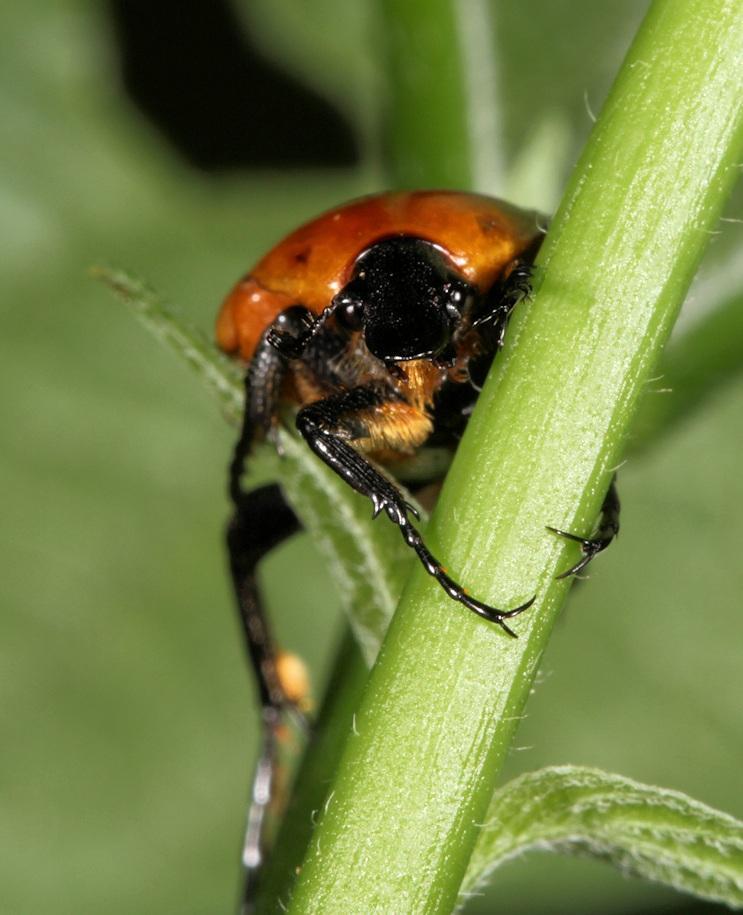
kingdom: Animalia
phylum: Arthropoda
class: Insecta
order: Coleoptera
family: Scarabaeidae
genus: Leucocelis
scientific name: Leucocelis rubra
